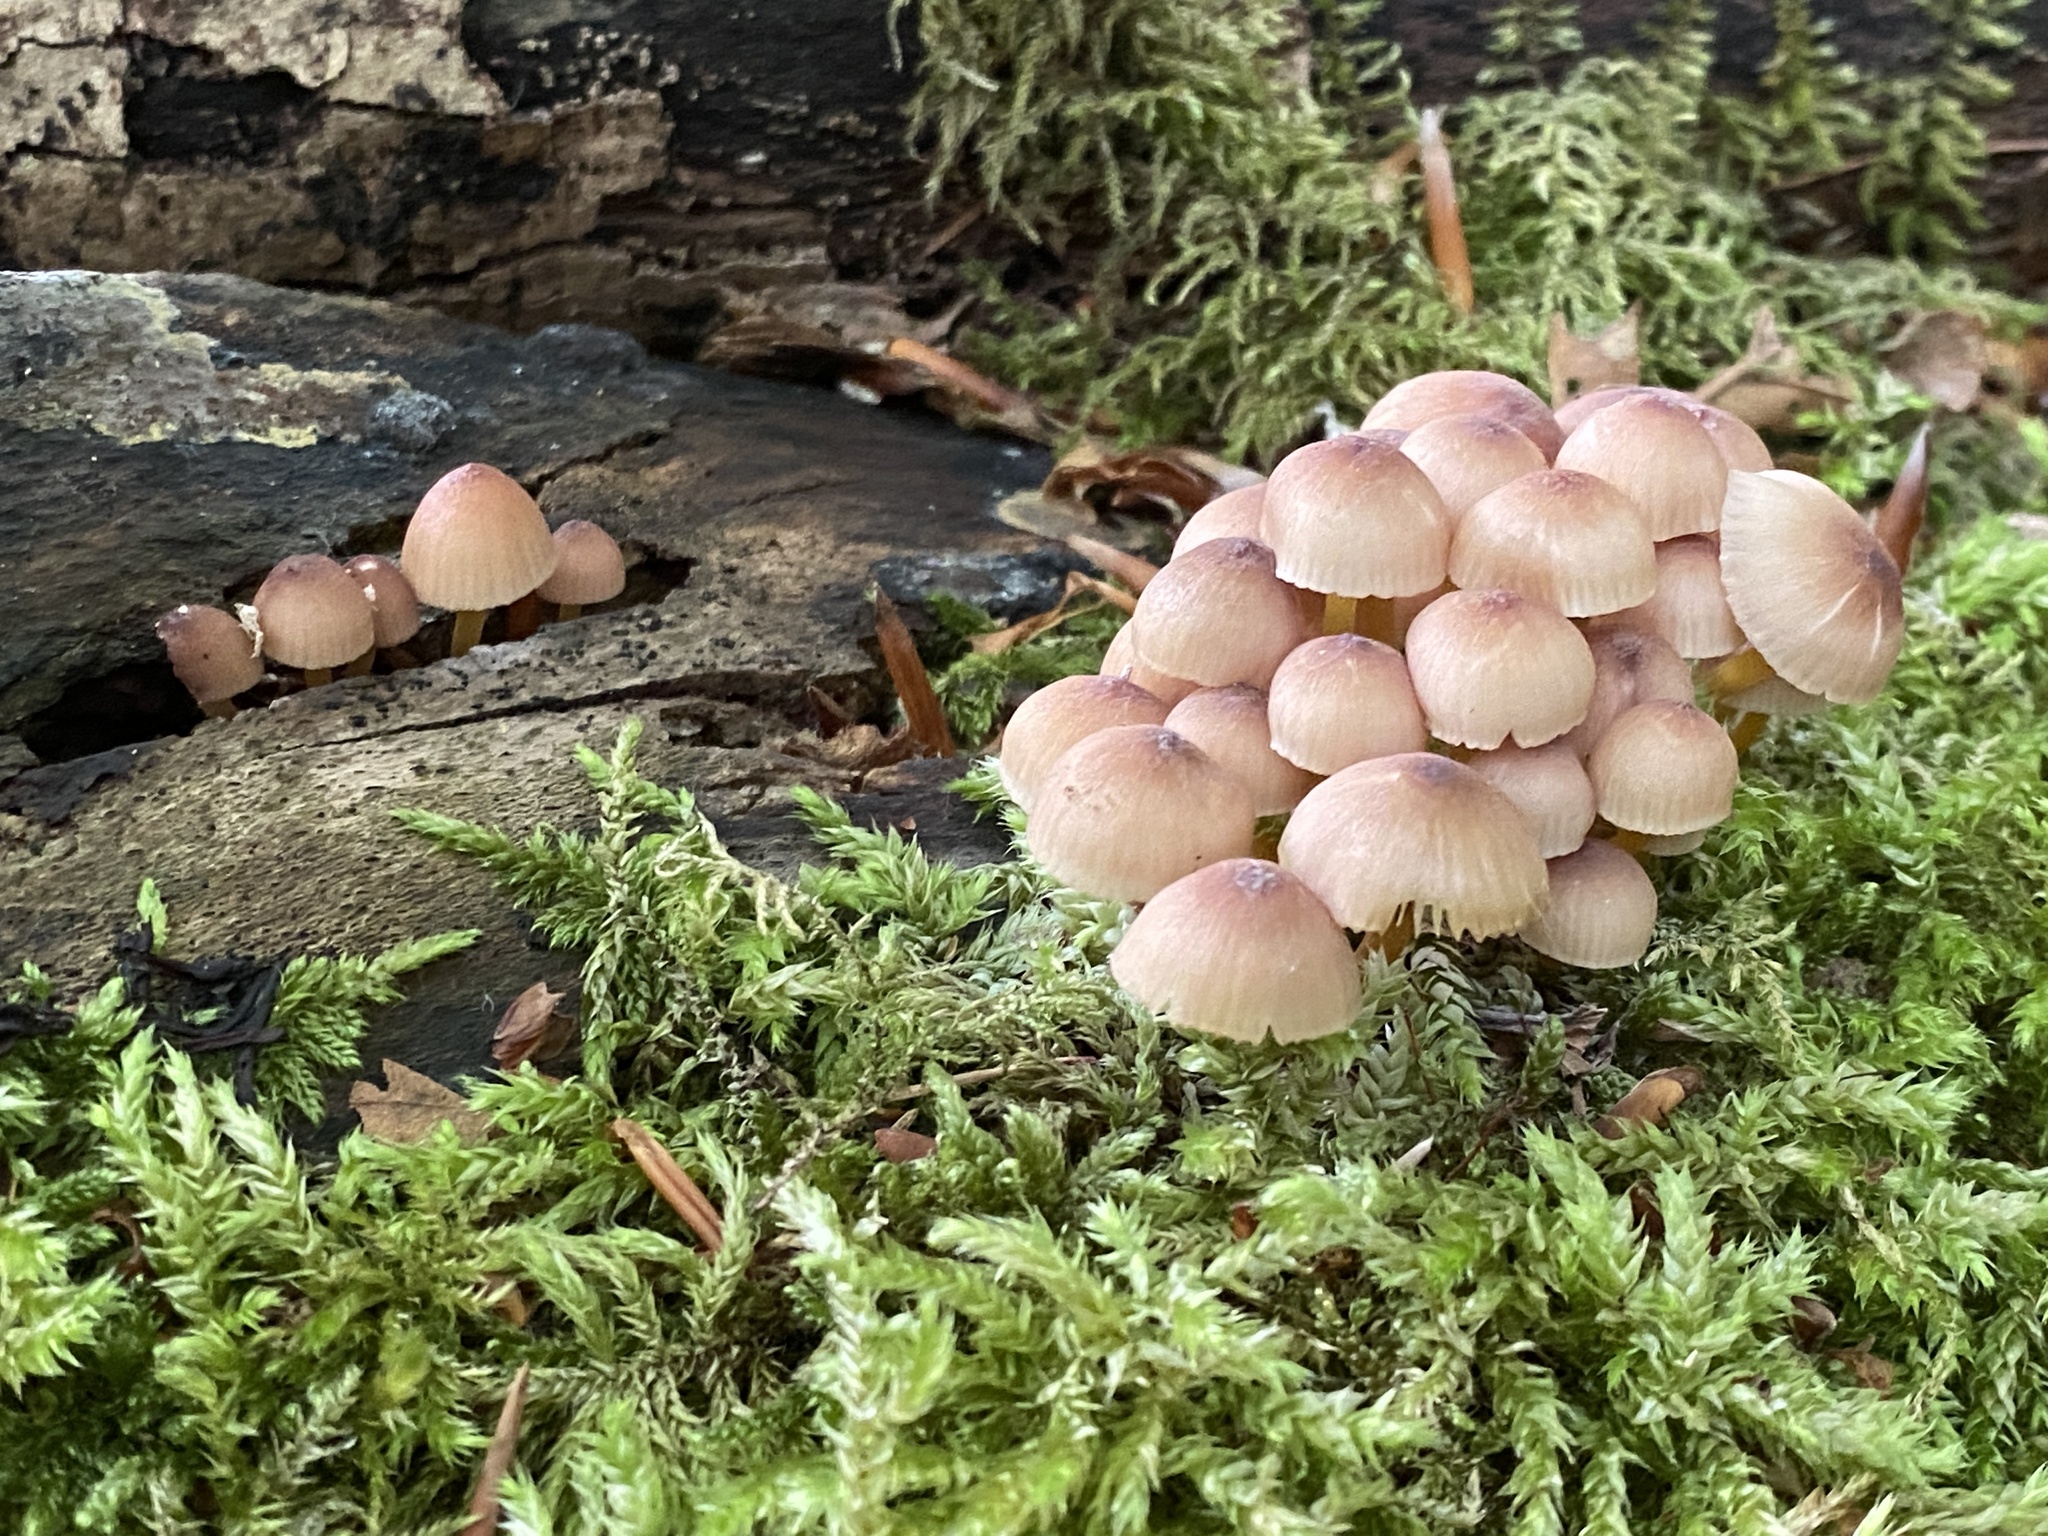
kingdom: Fungi
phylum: Basidiomycota
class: Agaricomycetes
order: Agaricales
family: Mycenaceae
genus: Mycena
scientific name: Mycena renati
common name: Beautiful bonnet
